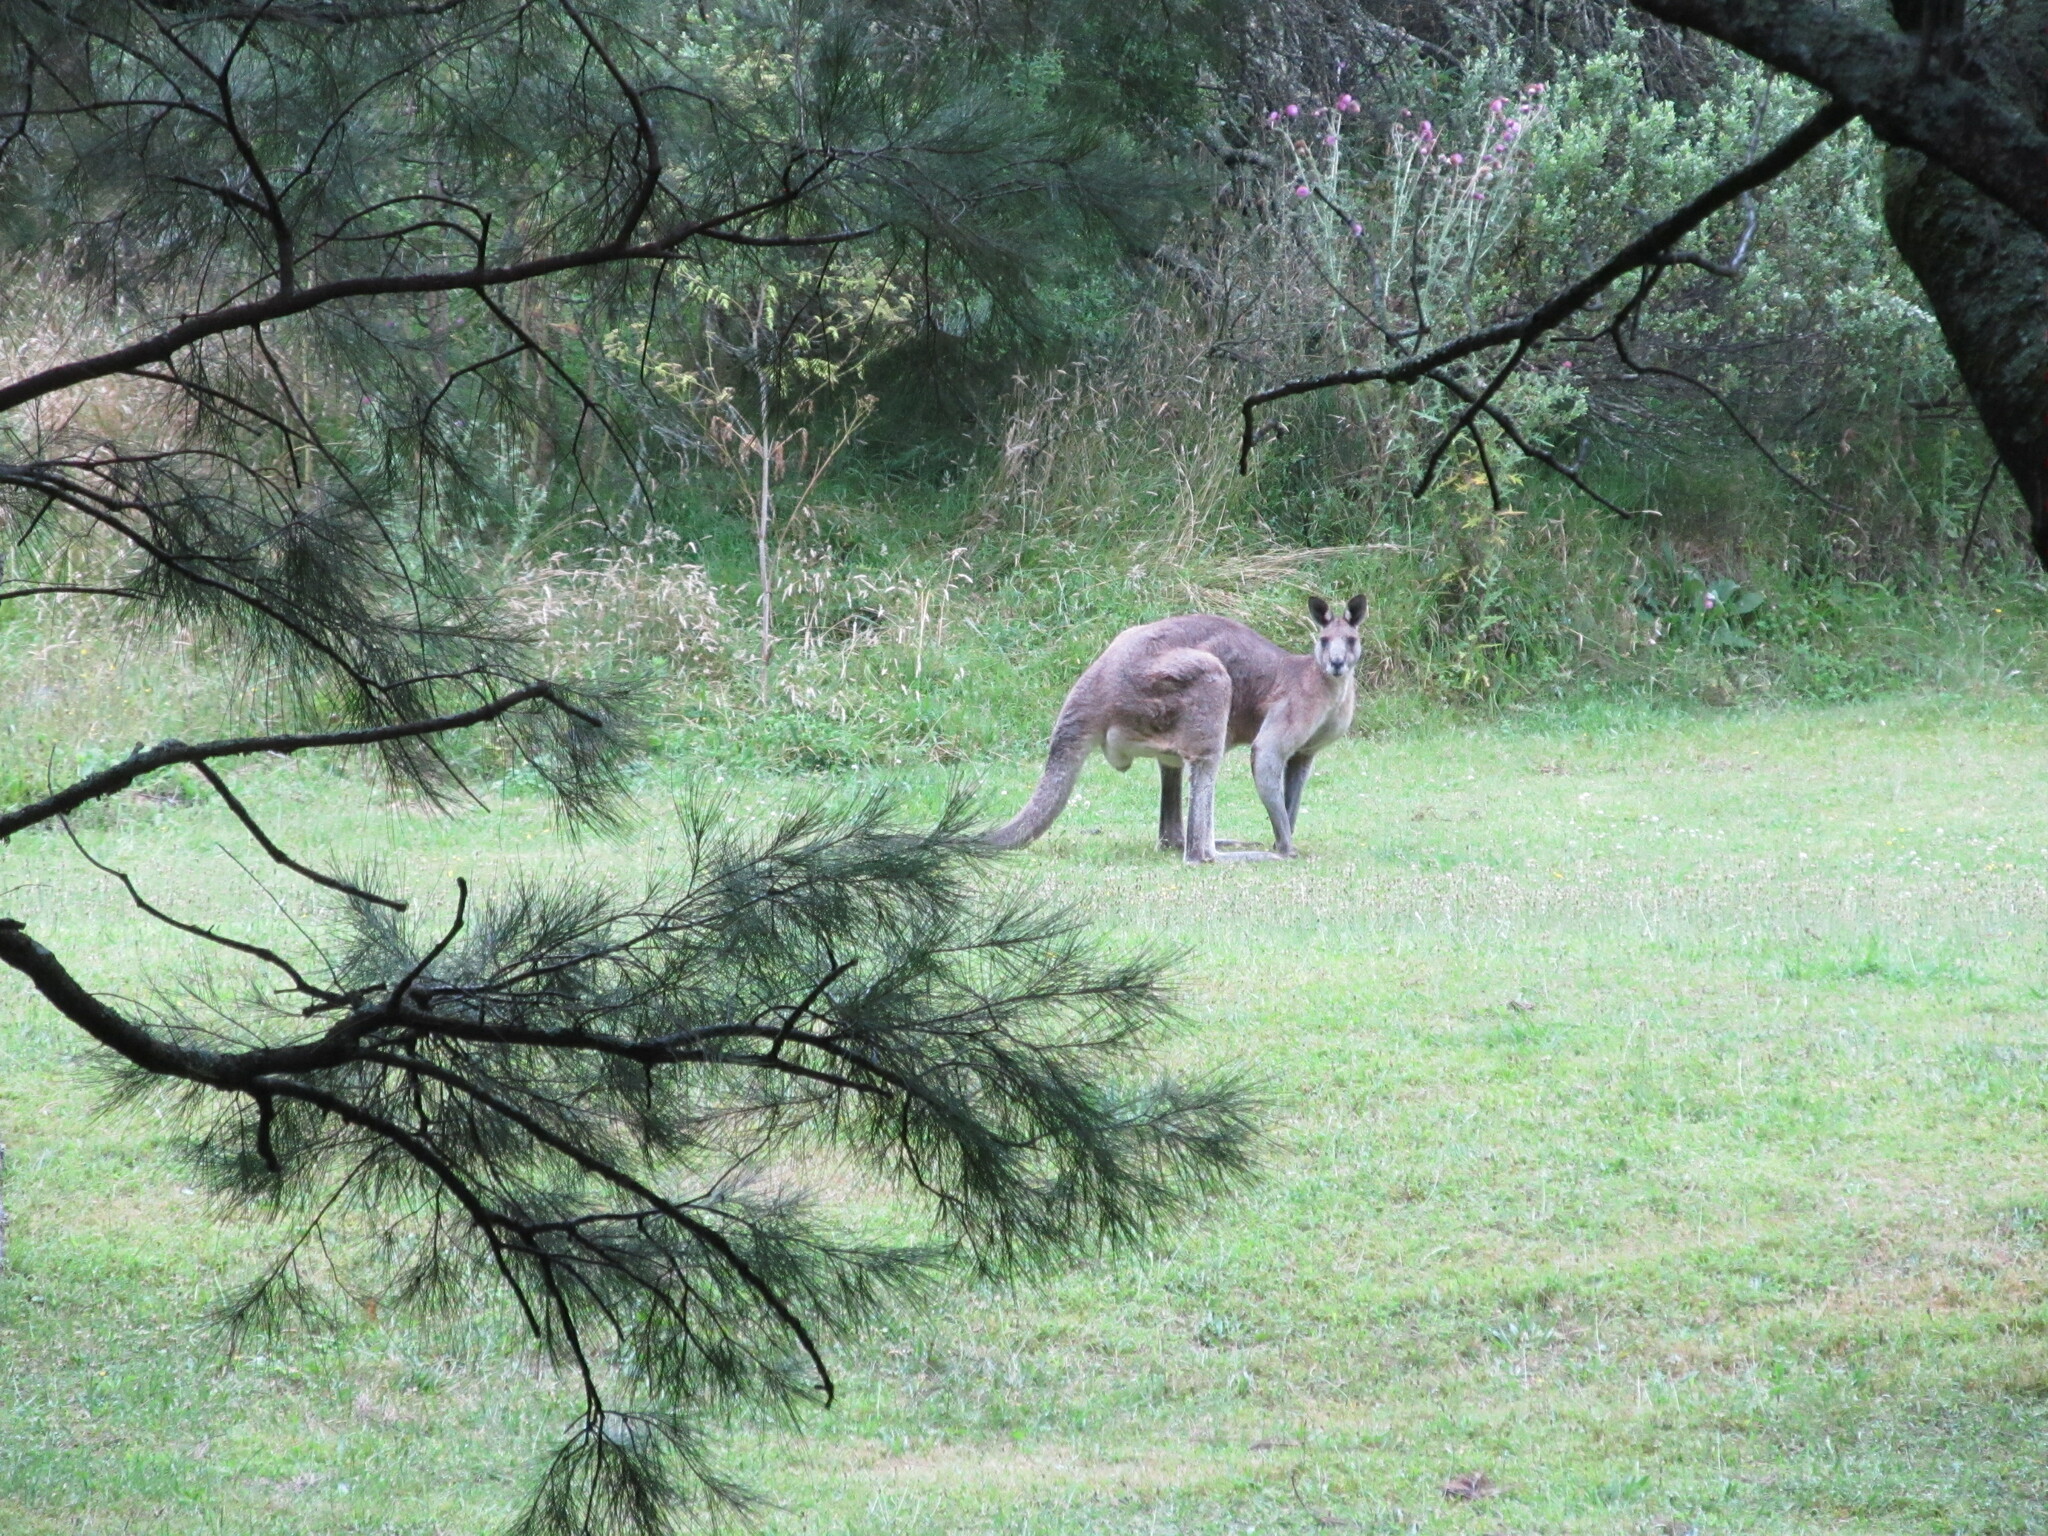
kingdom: Animalia
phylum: Chordata
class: Mammalia
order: Diprotodontia
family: Macropodidae
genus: Macropus
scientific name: Macropus giganteus
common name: Eastern grey kangaroo
